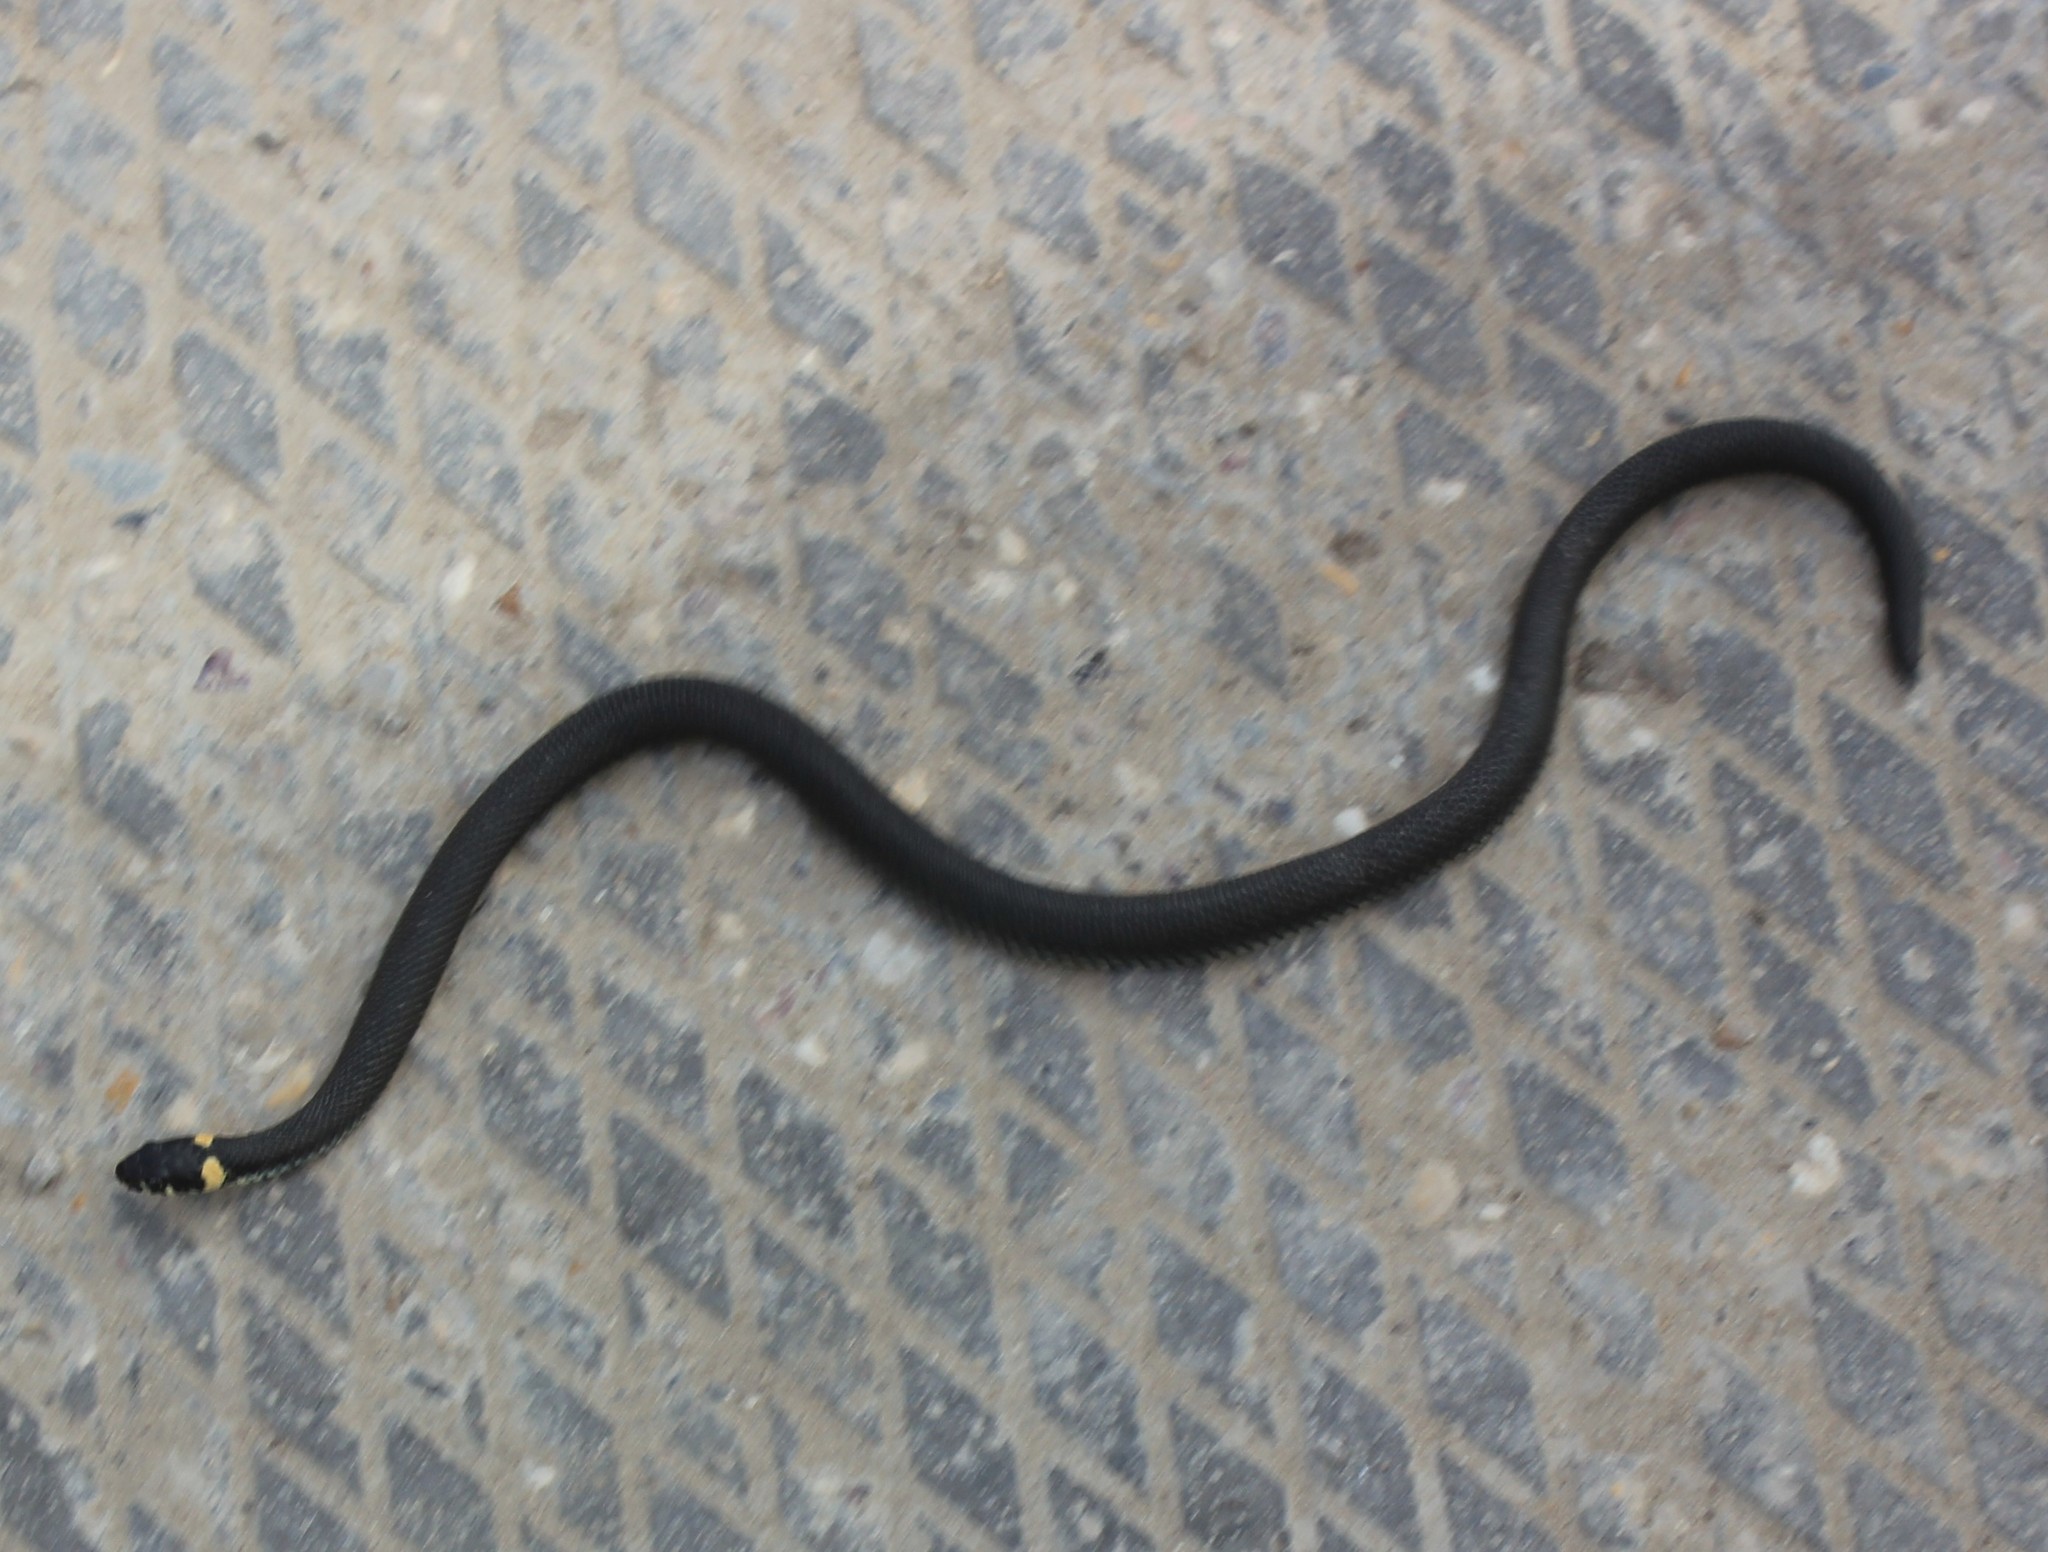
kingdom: Animalia
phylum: Chordata
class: Squamata
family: Colubridae
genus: Natrix
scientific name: Natrix natrix
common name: Grass snake
